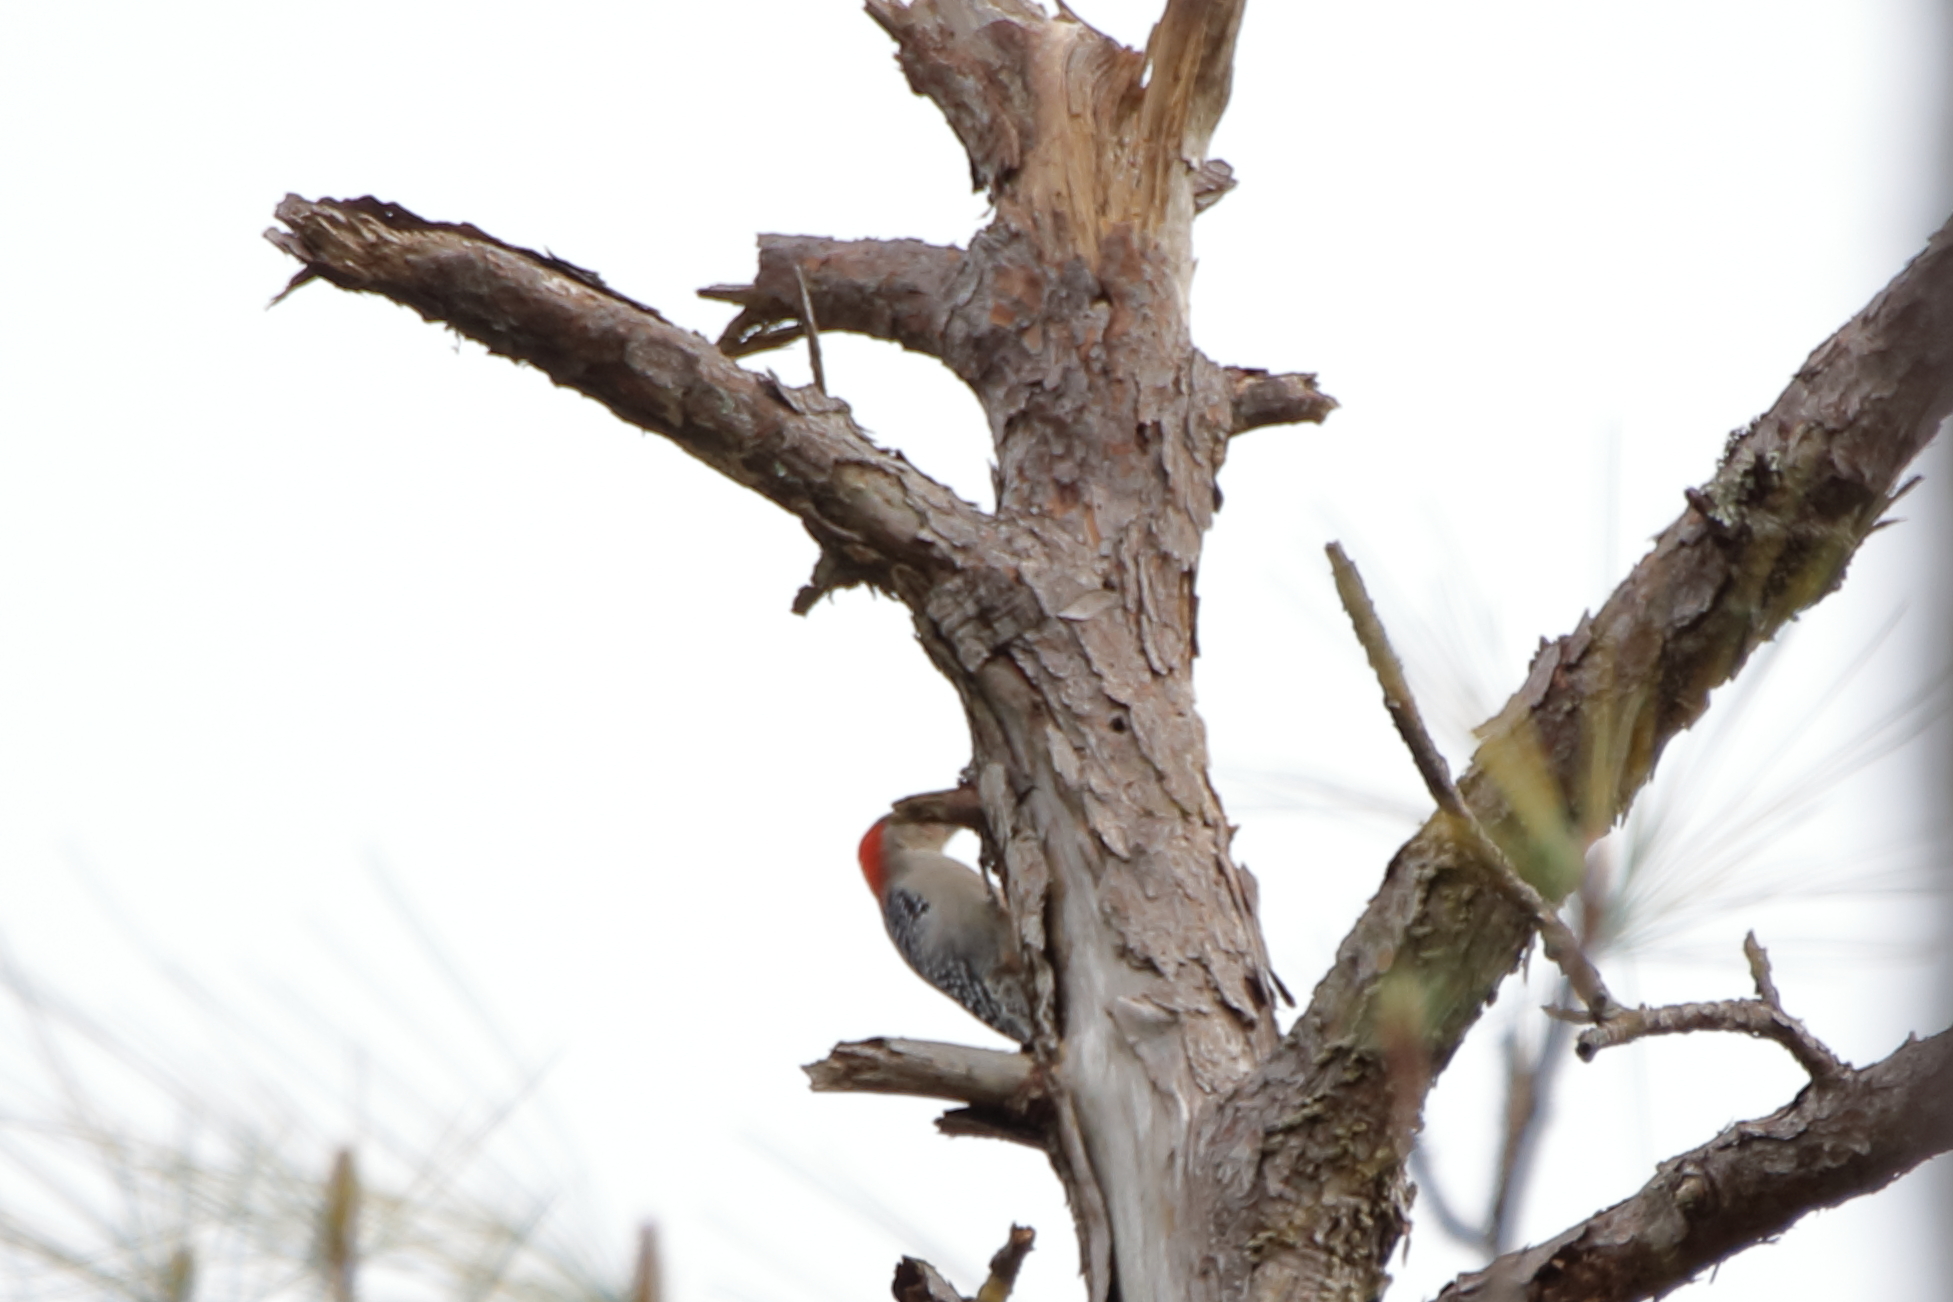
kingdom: Animalia
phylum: Chordata
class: Aves
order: Piciformes
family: Picidae
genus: Melanerpes
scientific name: Melanerpes carolinus
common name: Red-bellied woodpecker
